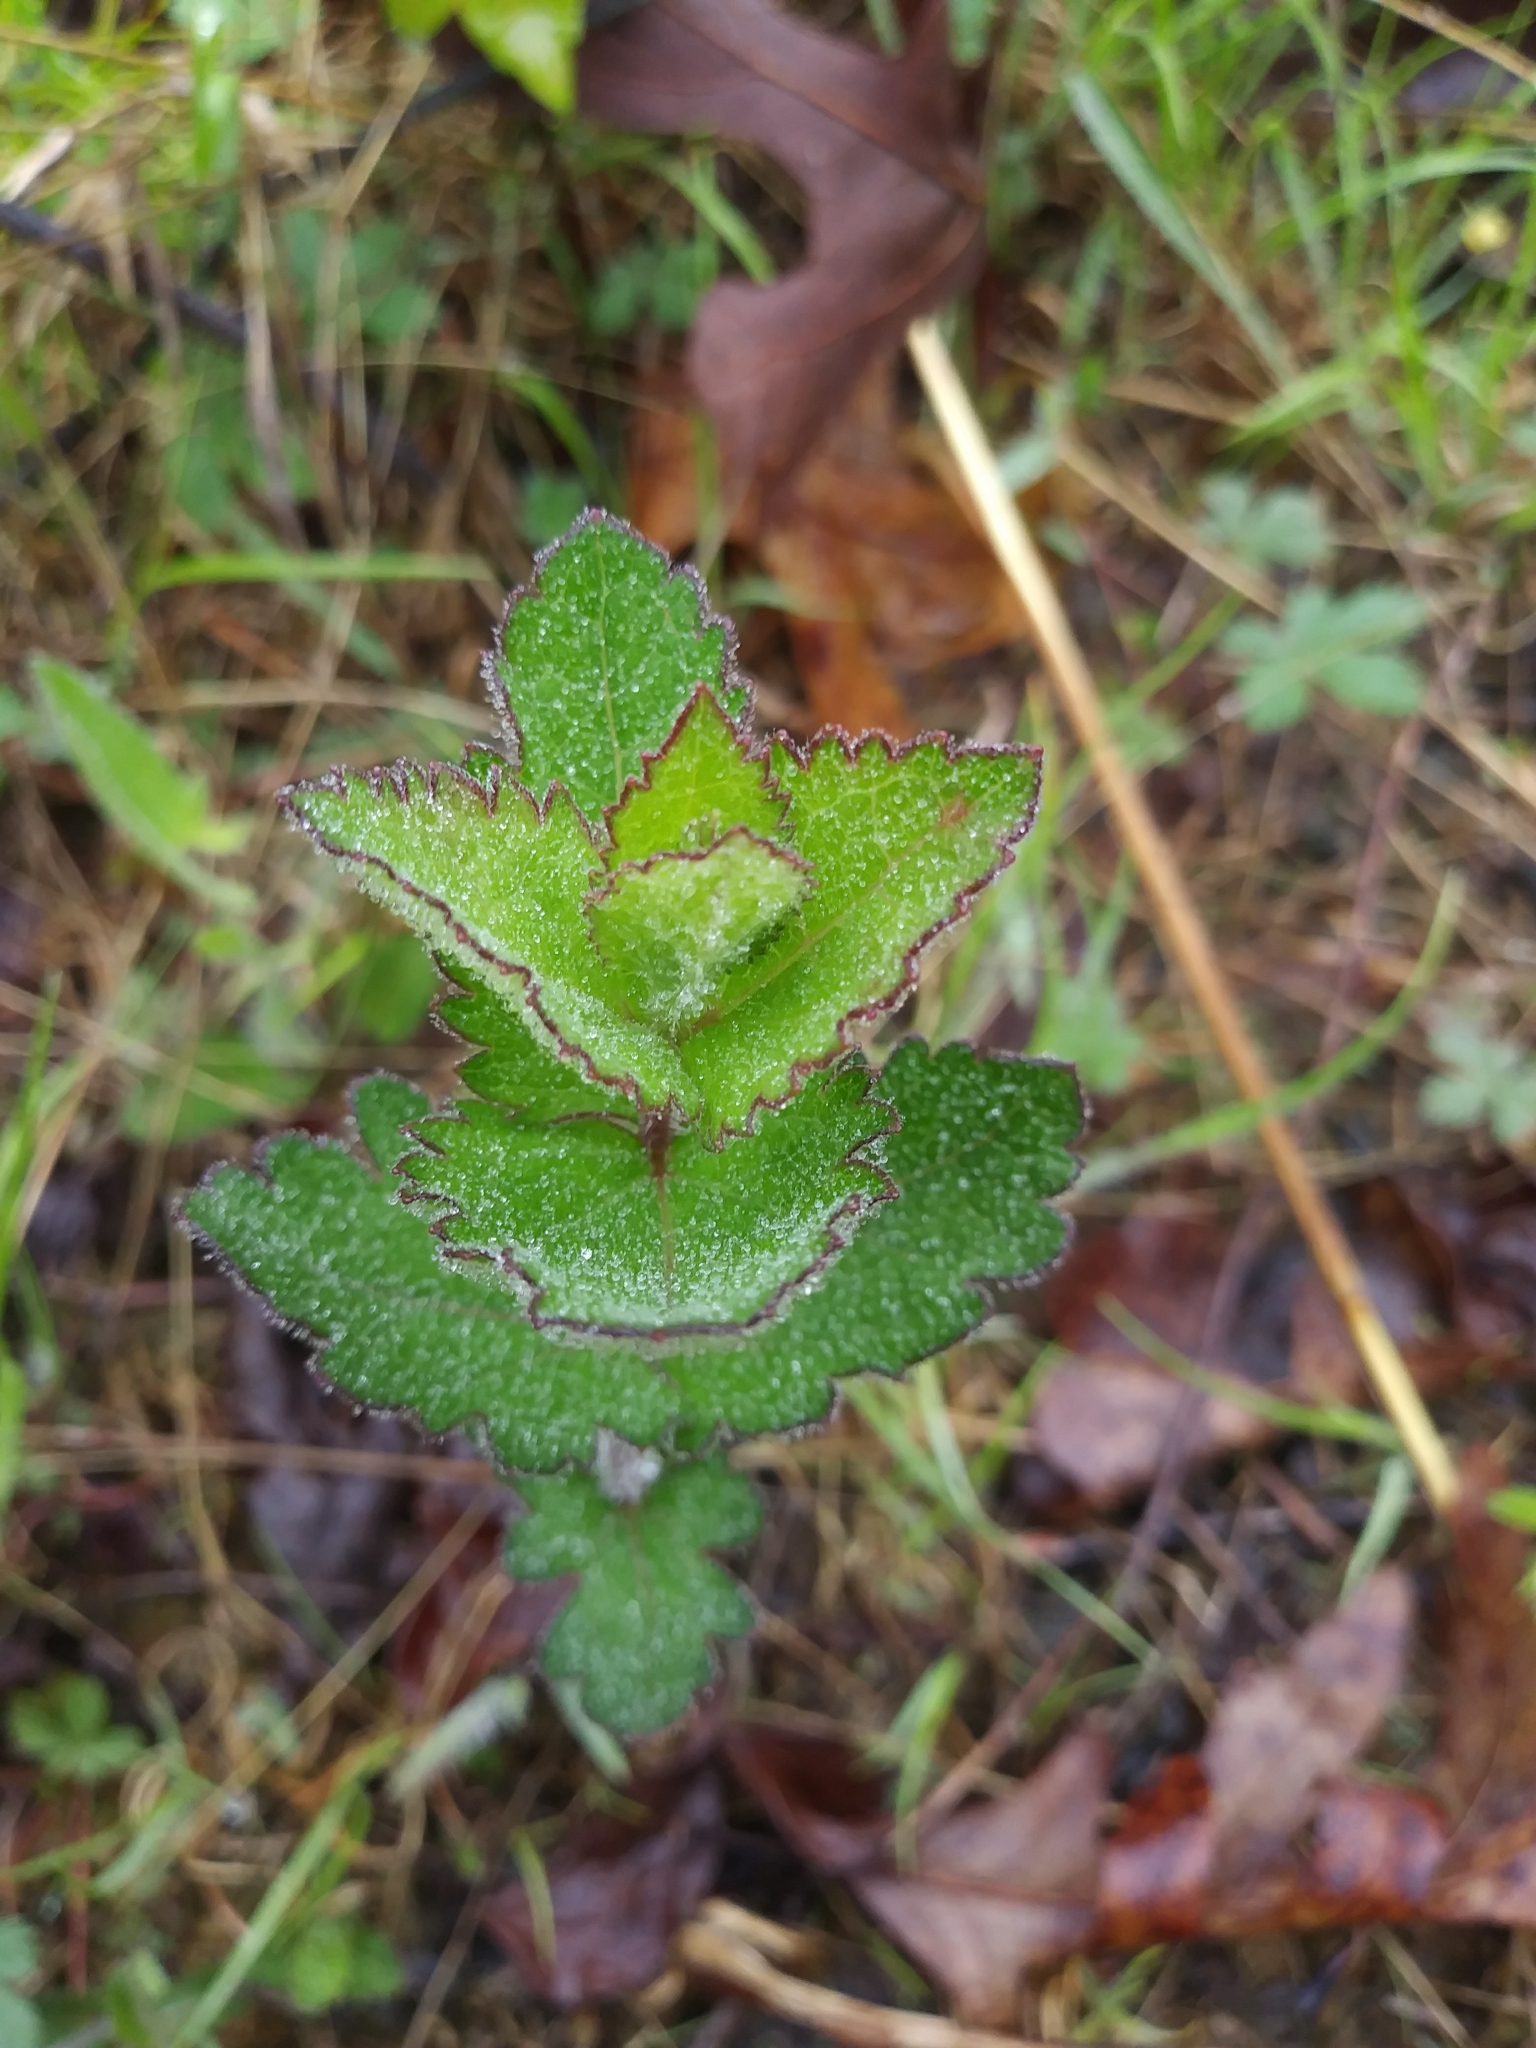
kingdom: Plantae
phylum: Tracheophyta
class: Magnoliopsida
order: Asterales
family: Asteraceae
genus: Eupatorium
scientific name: Eupatorium rotundifolium
